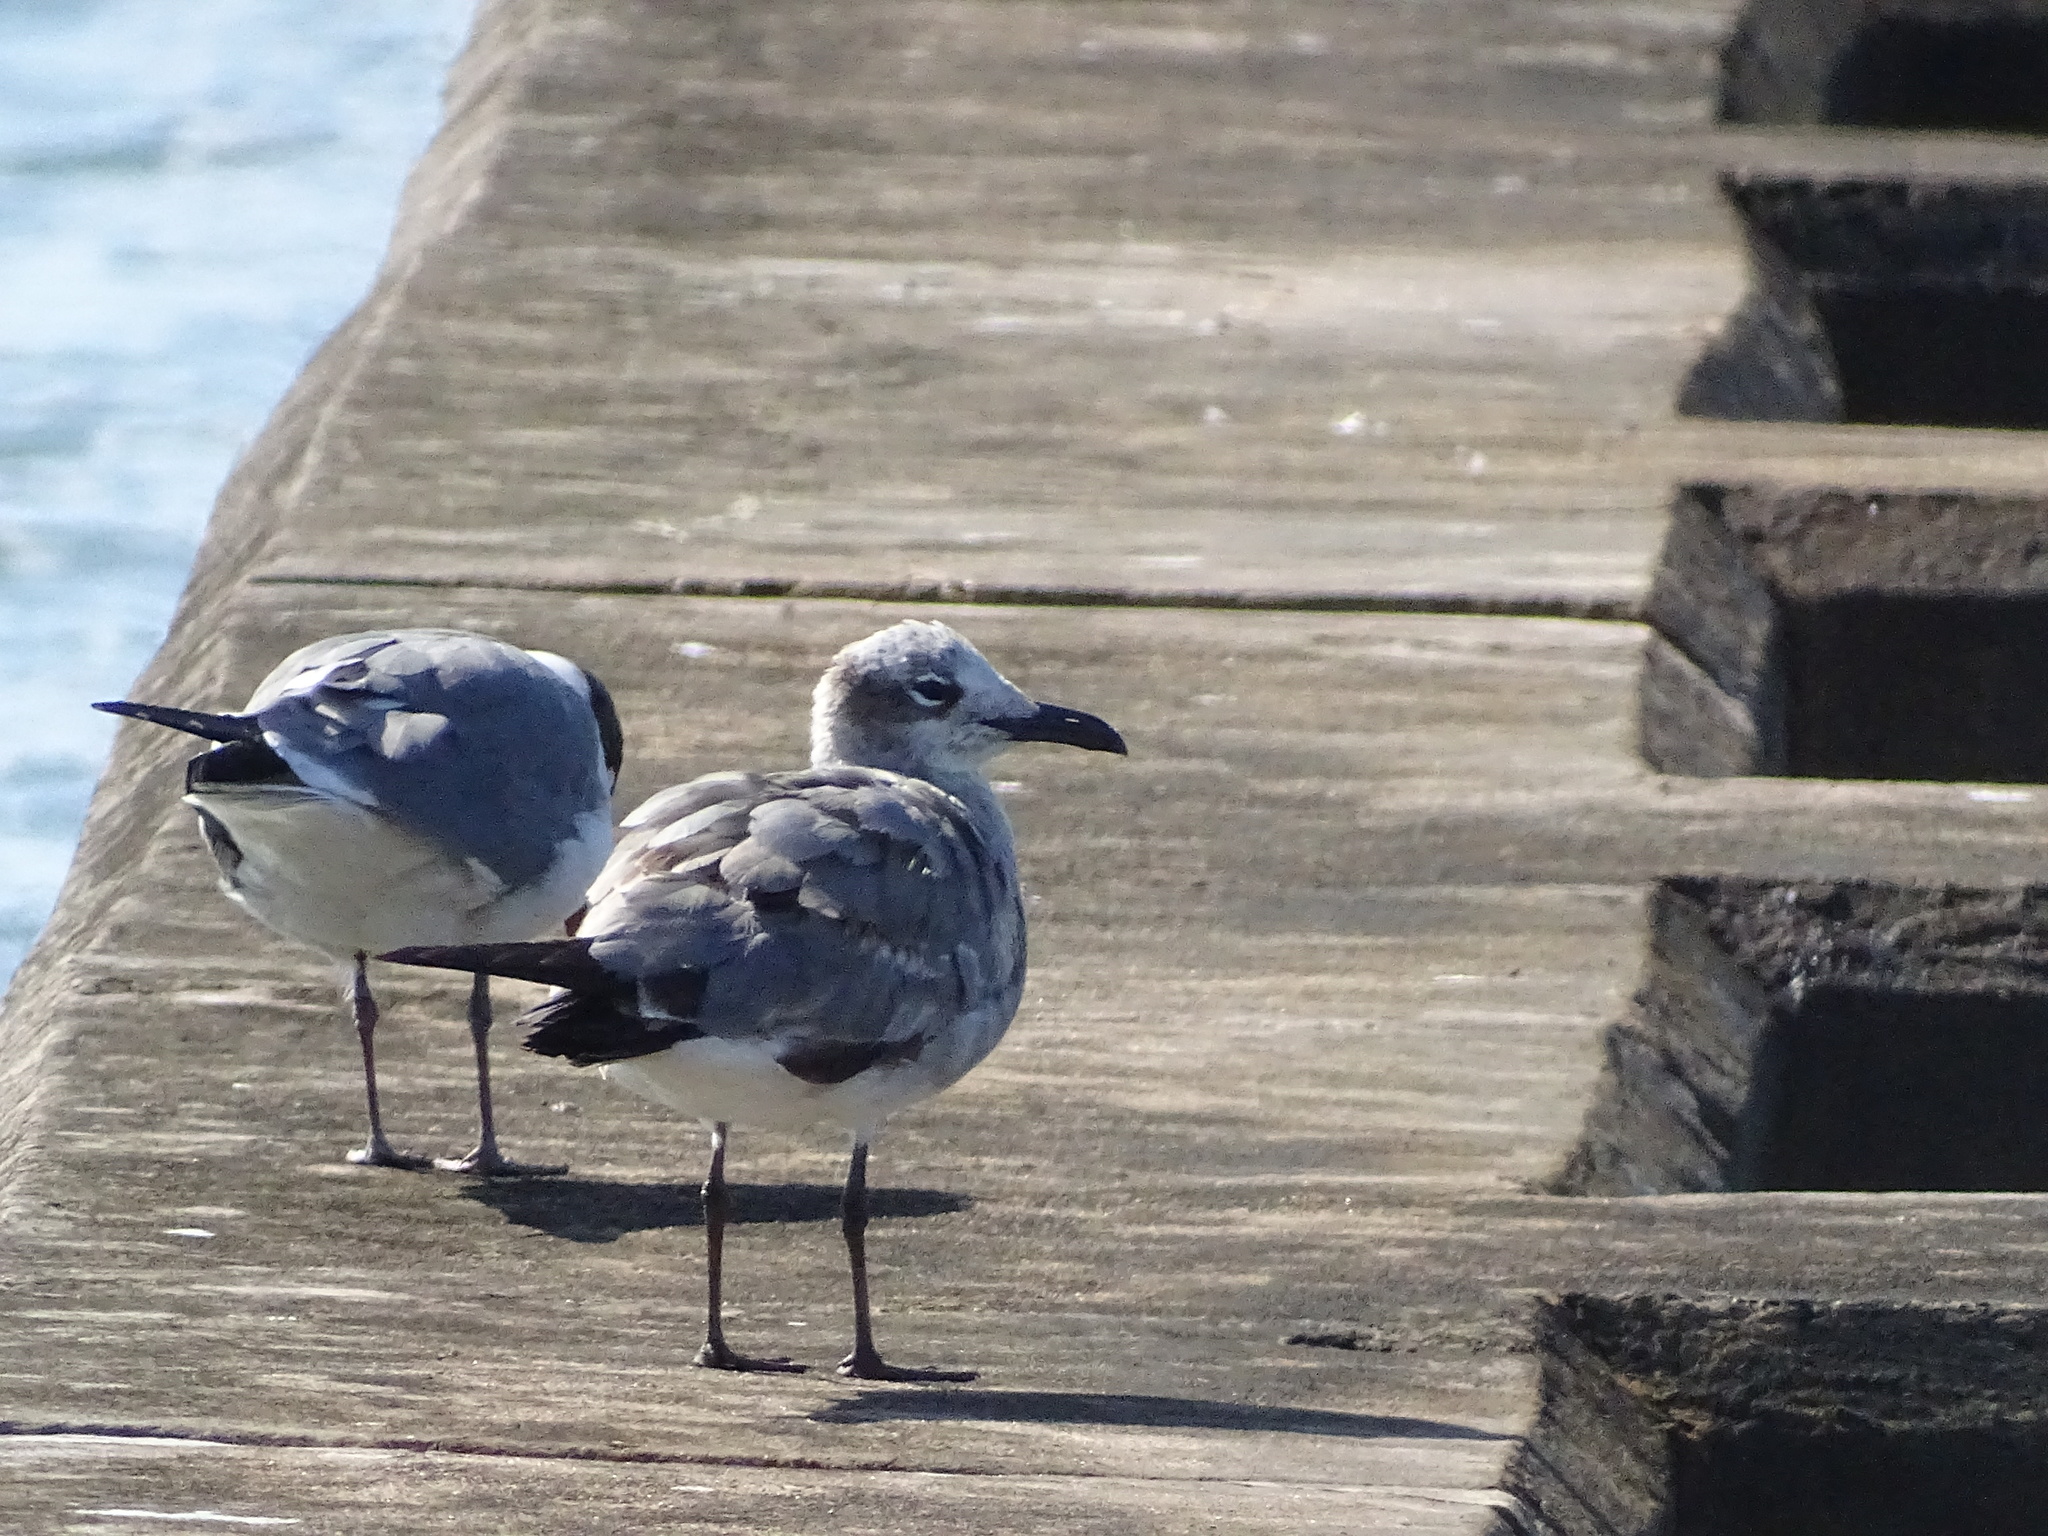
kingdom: Animalia
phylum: Chordata
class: Aves
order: Charadriiformes
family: Laridae
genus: Leucophaeus
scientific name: Leucophaeus atricilla
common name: Laughing gull
